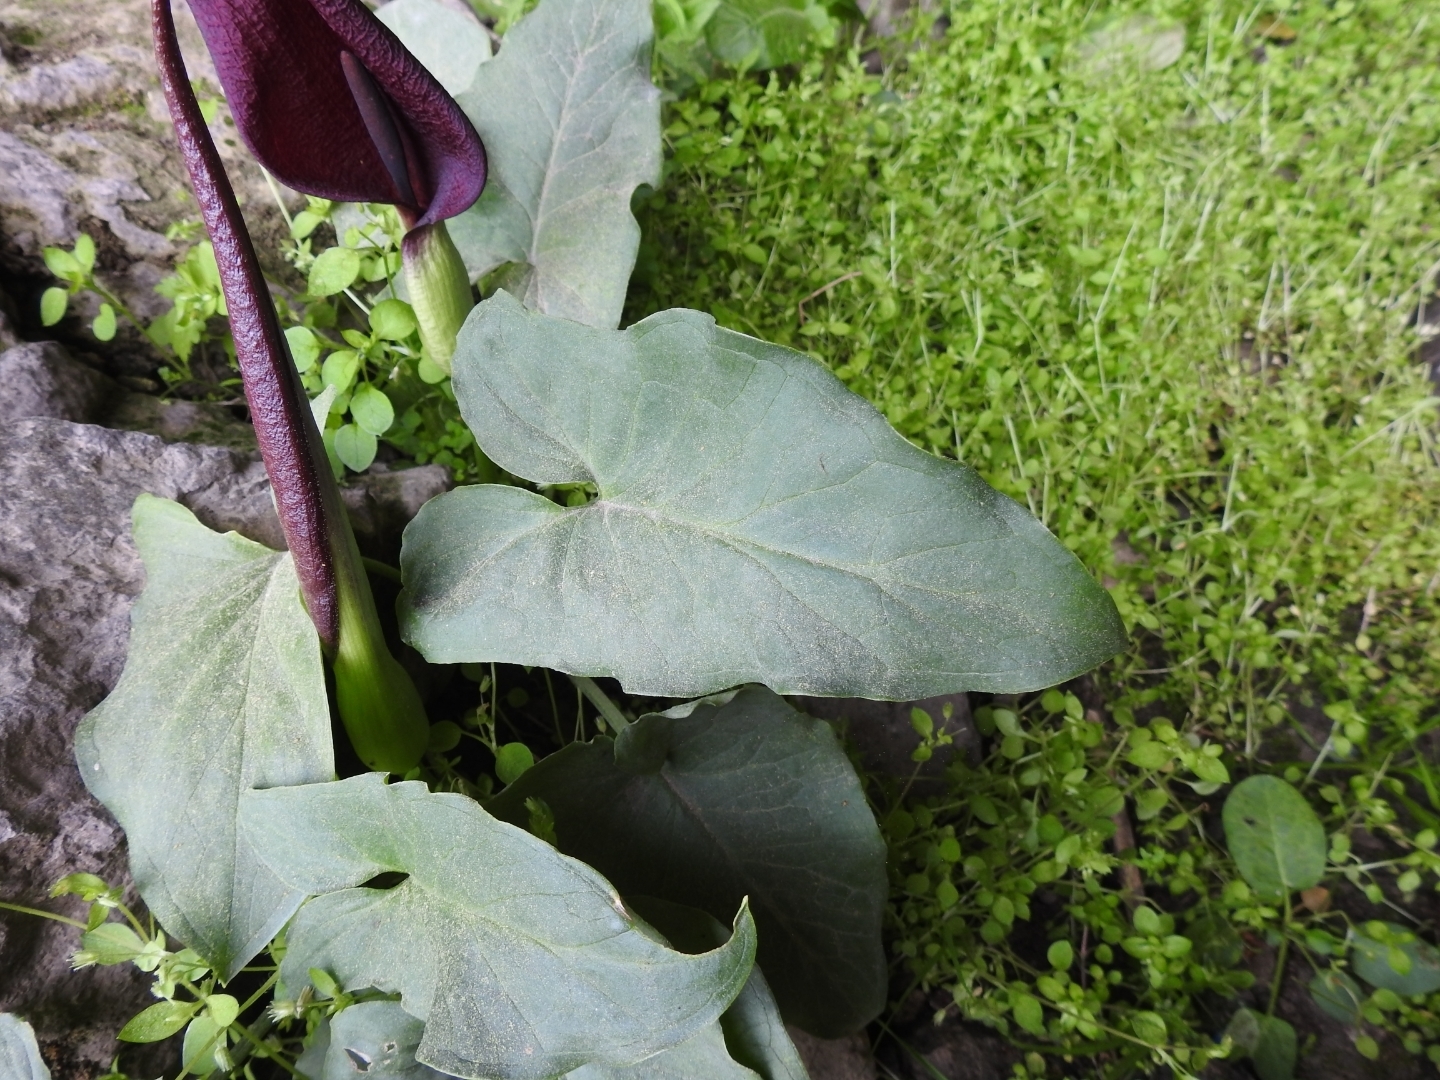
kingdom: Plantae
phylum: Tracheophyta
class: Liliopsida
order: Alismatales
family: Araceae
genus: Arum
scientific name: Arum purpureospathum
